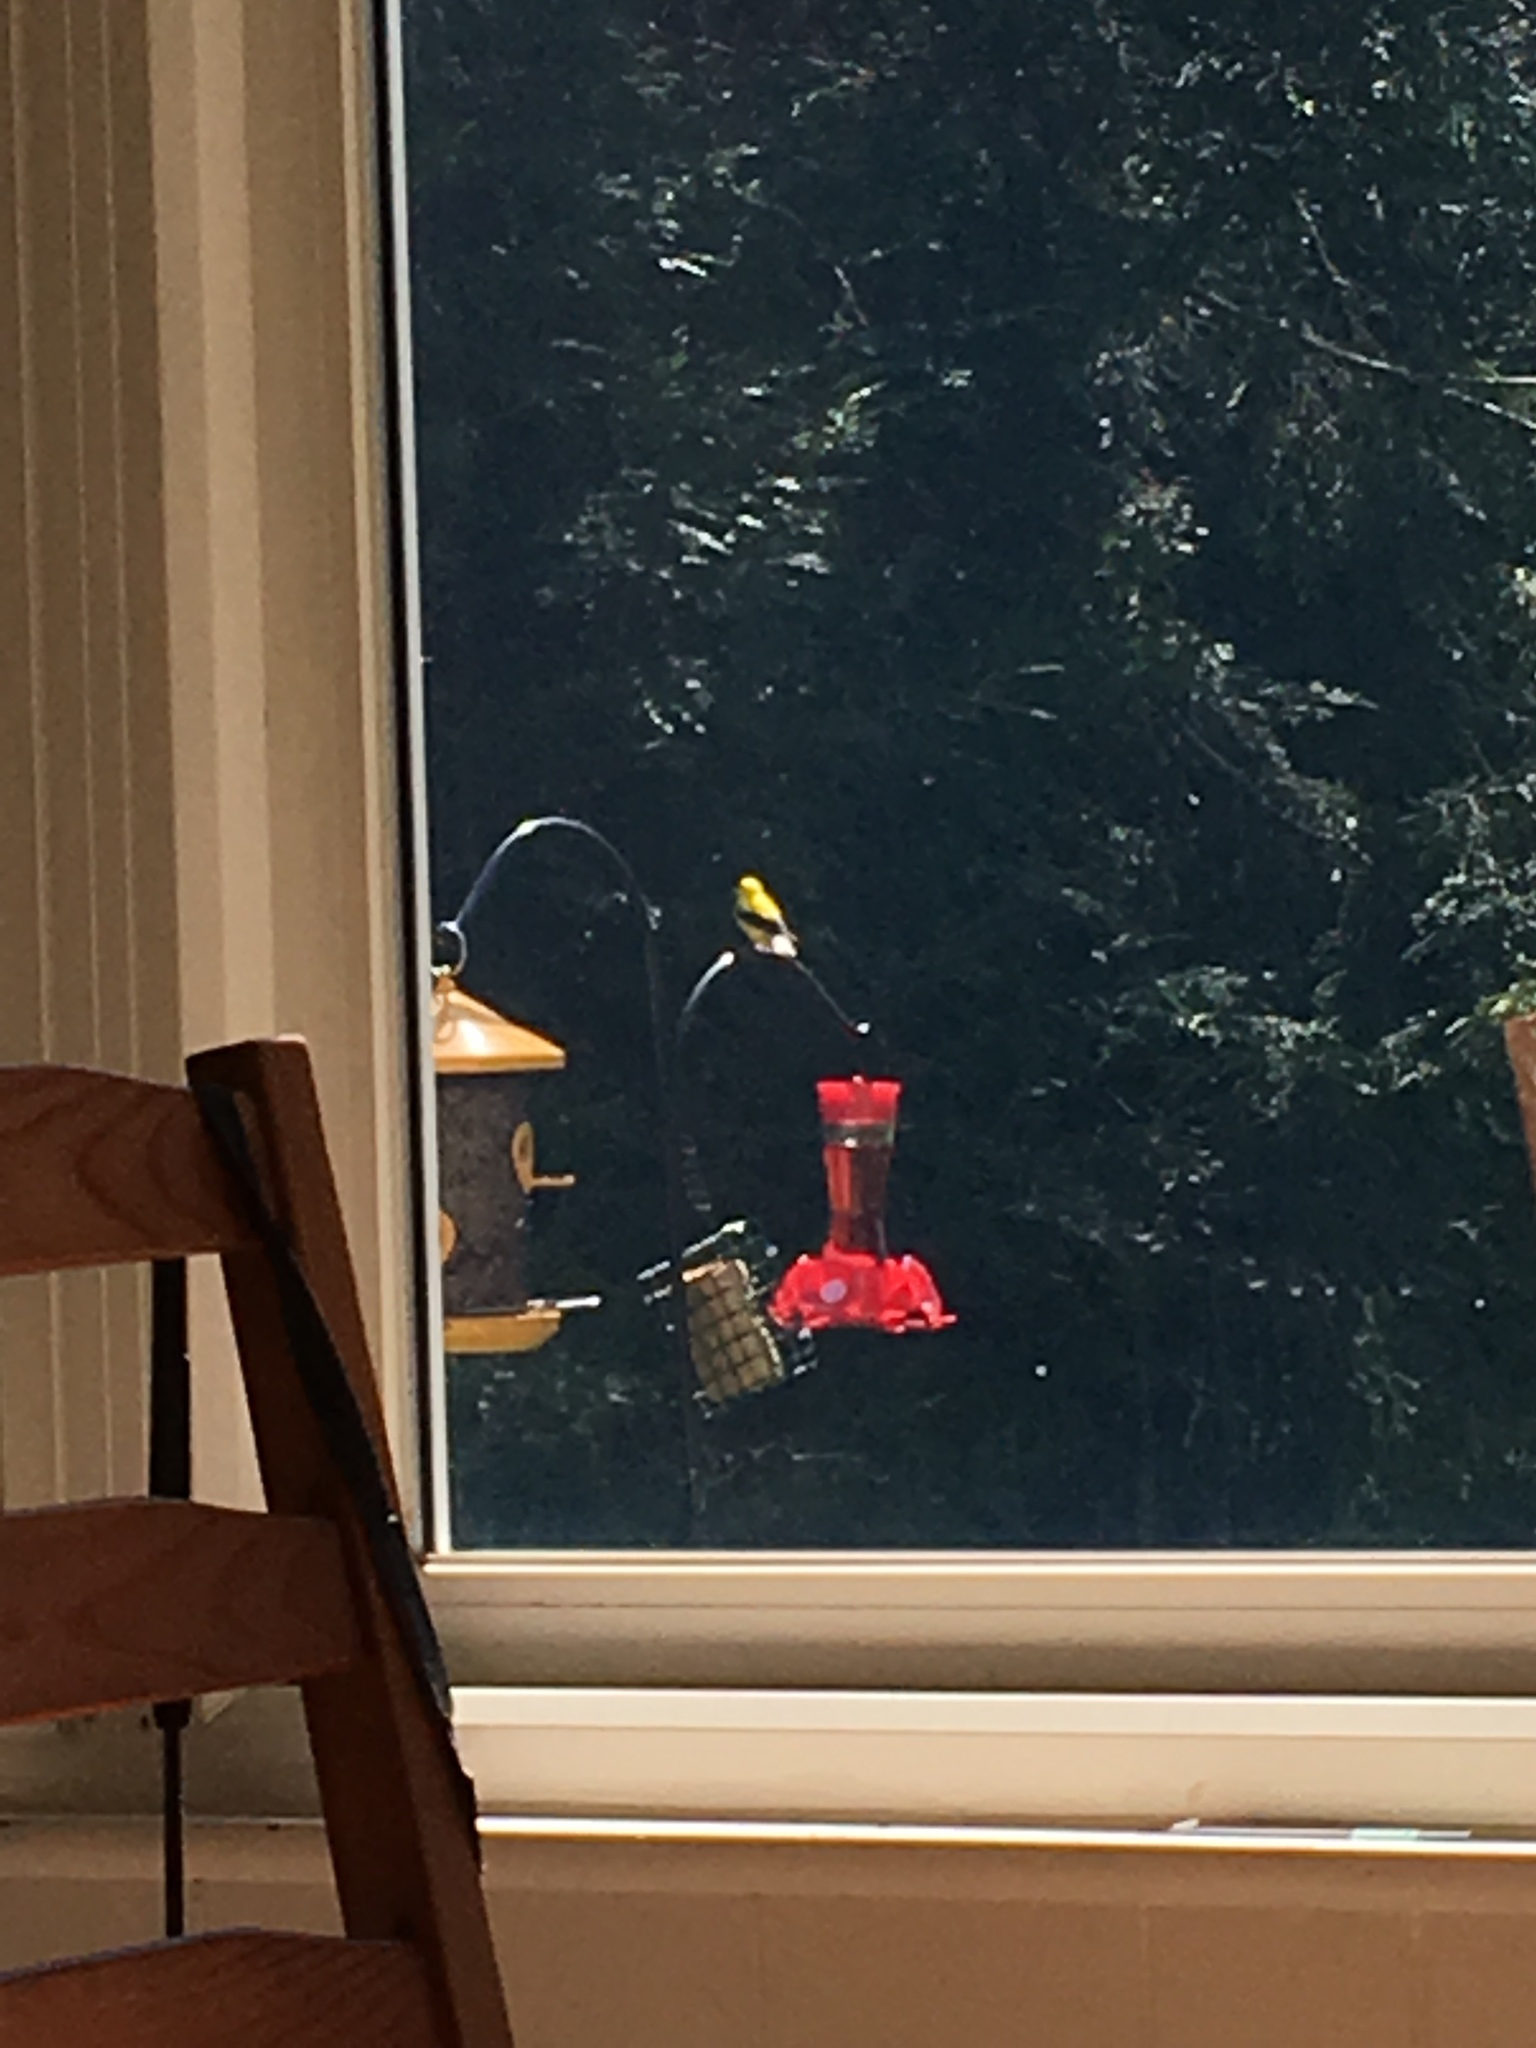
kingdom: Animalia
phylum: Chordata
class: Aves
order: Passeriformes
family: Fringillidae
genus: Spinus
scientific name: Spinus tristis
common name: American goldfinch
